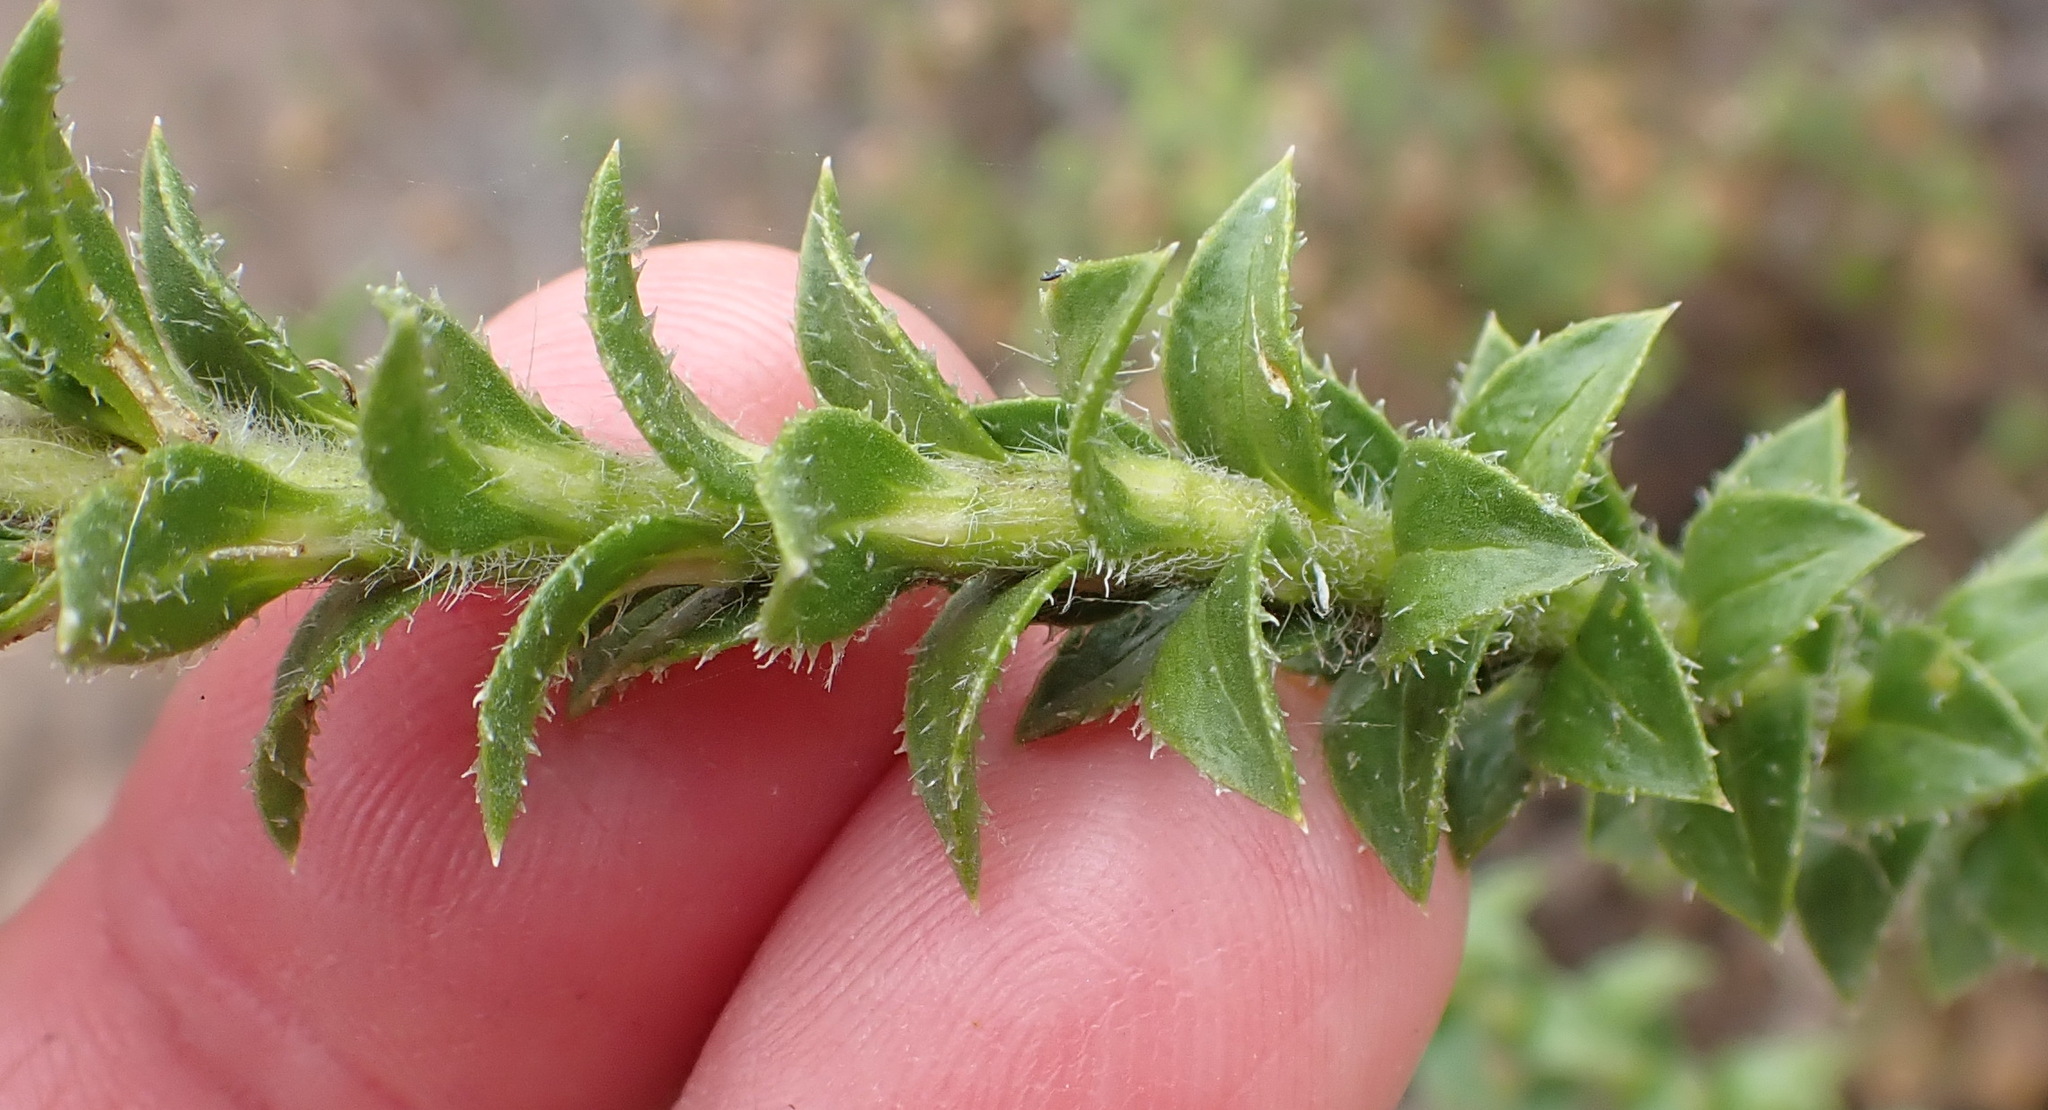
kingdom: Plantae
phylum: Tracheophyta
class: Magnoliopsida
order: Asterales
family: Asteraceae
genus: Felicia
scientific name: Felicia echinata
